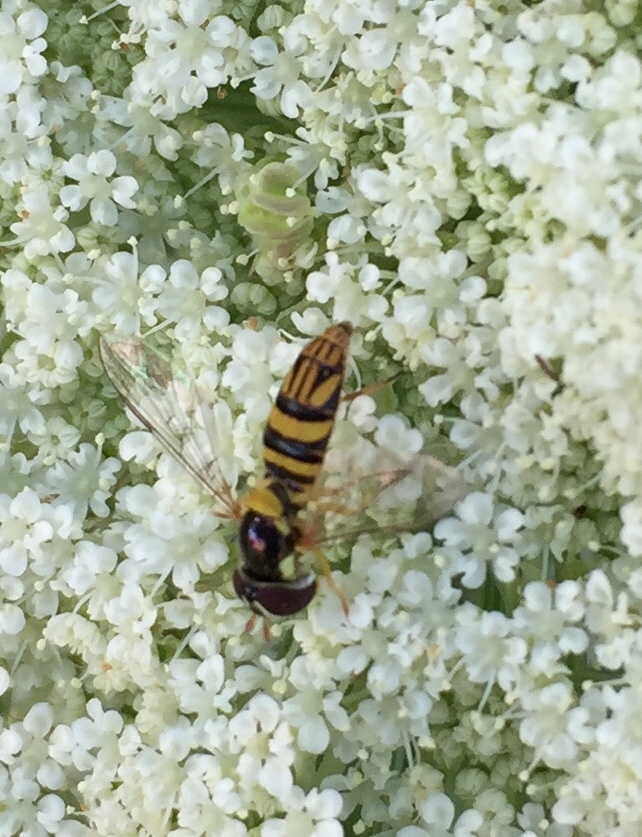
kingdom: Animalia
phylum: Arthropoda
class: Insecta
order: Diptera
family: Syrphidae
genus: Allograpta
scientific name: Allograpta obliqua
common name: Common oblique syrphid
